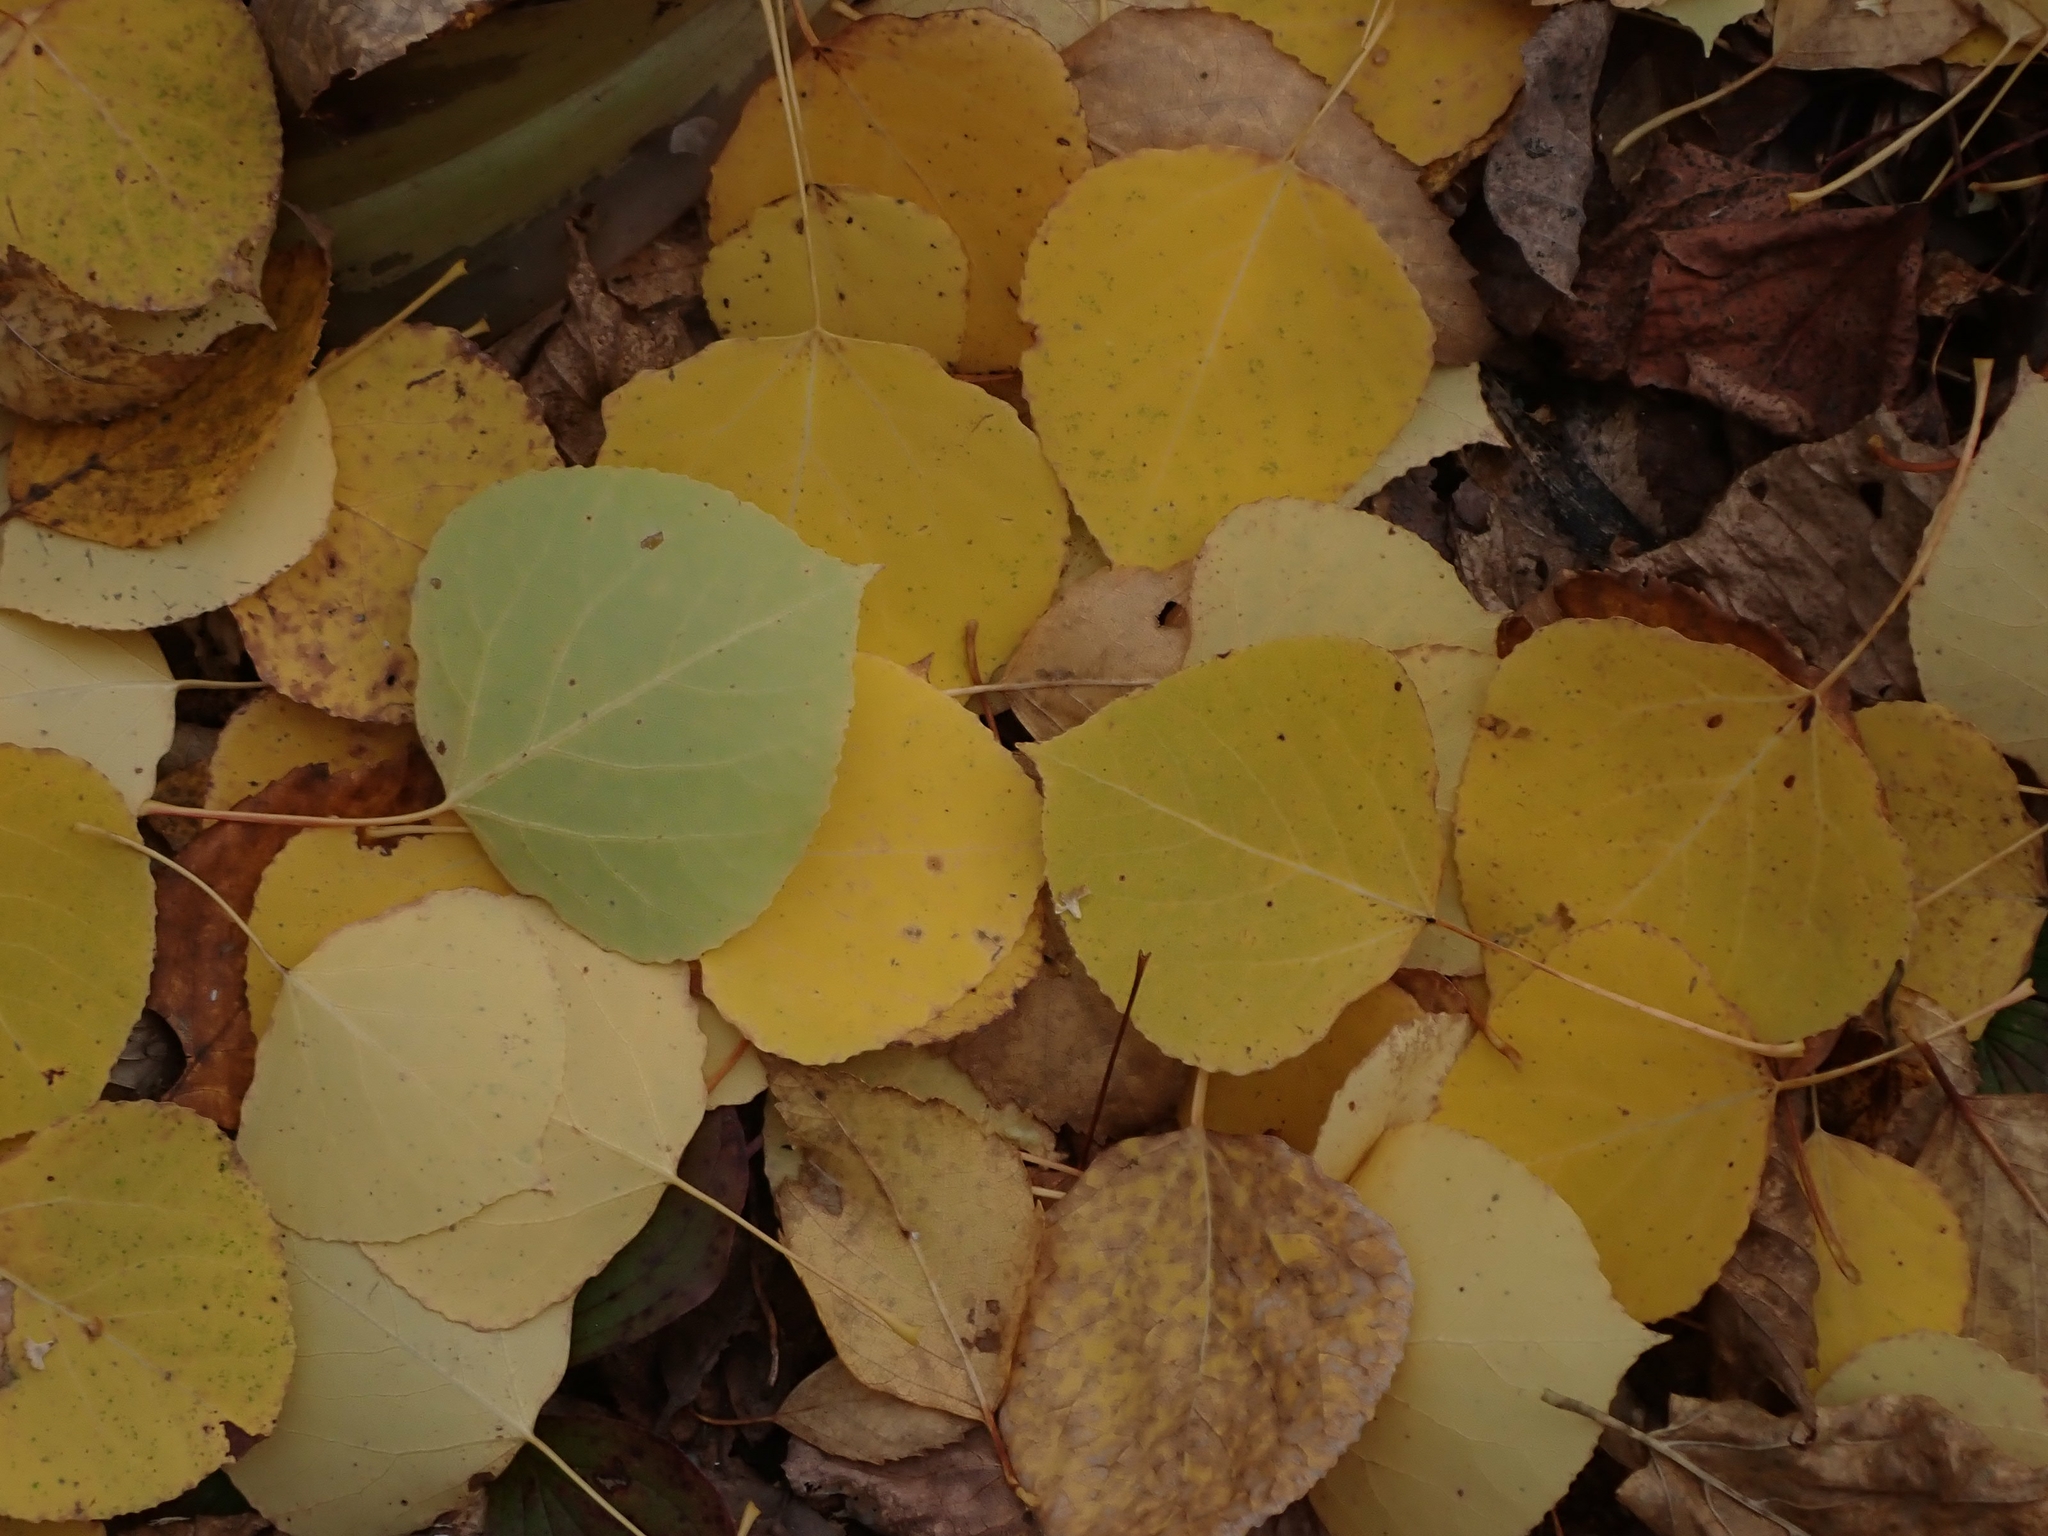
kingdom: Plantae
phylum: Tracheophyta
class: Magnoliopsida
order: Malpighiales
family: Salicaceae
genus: Populus
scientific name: Populus tremuloides
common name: Quaking aspen
